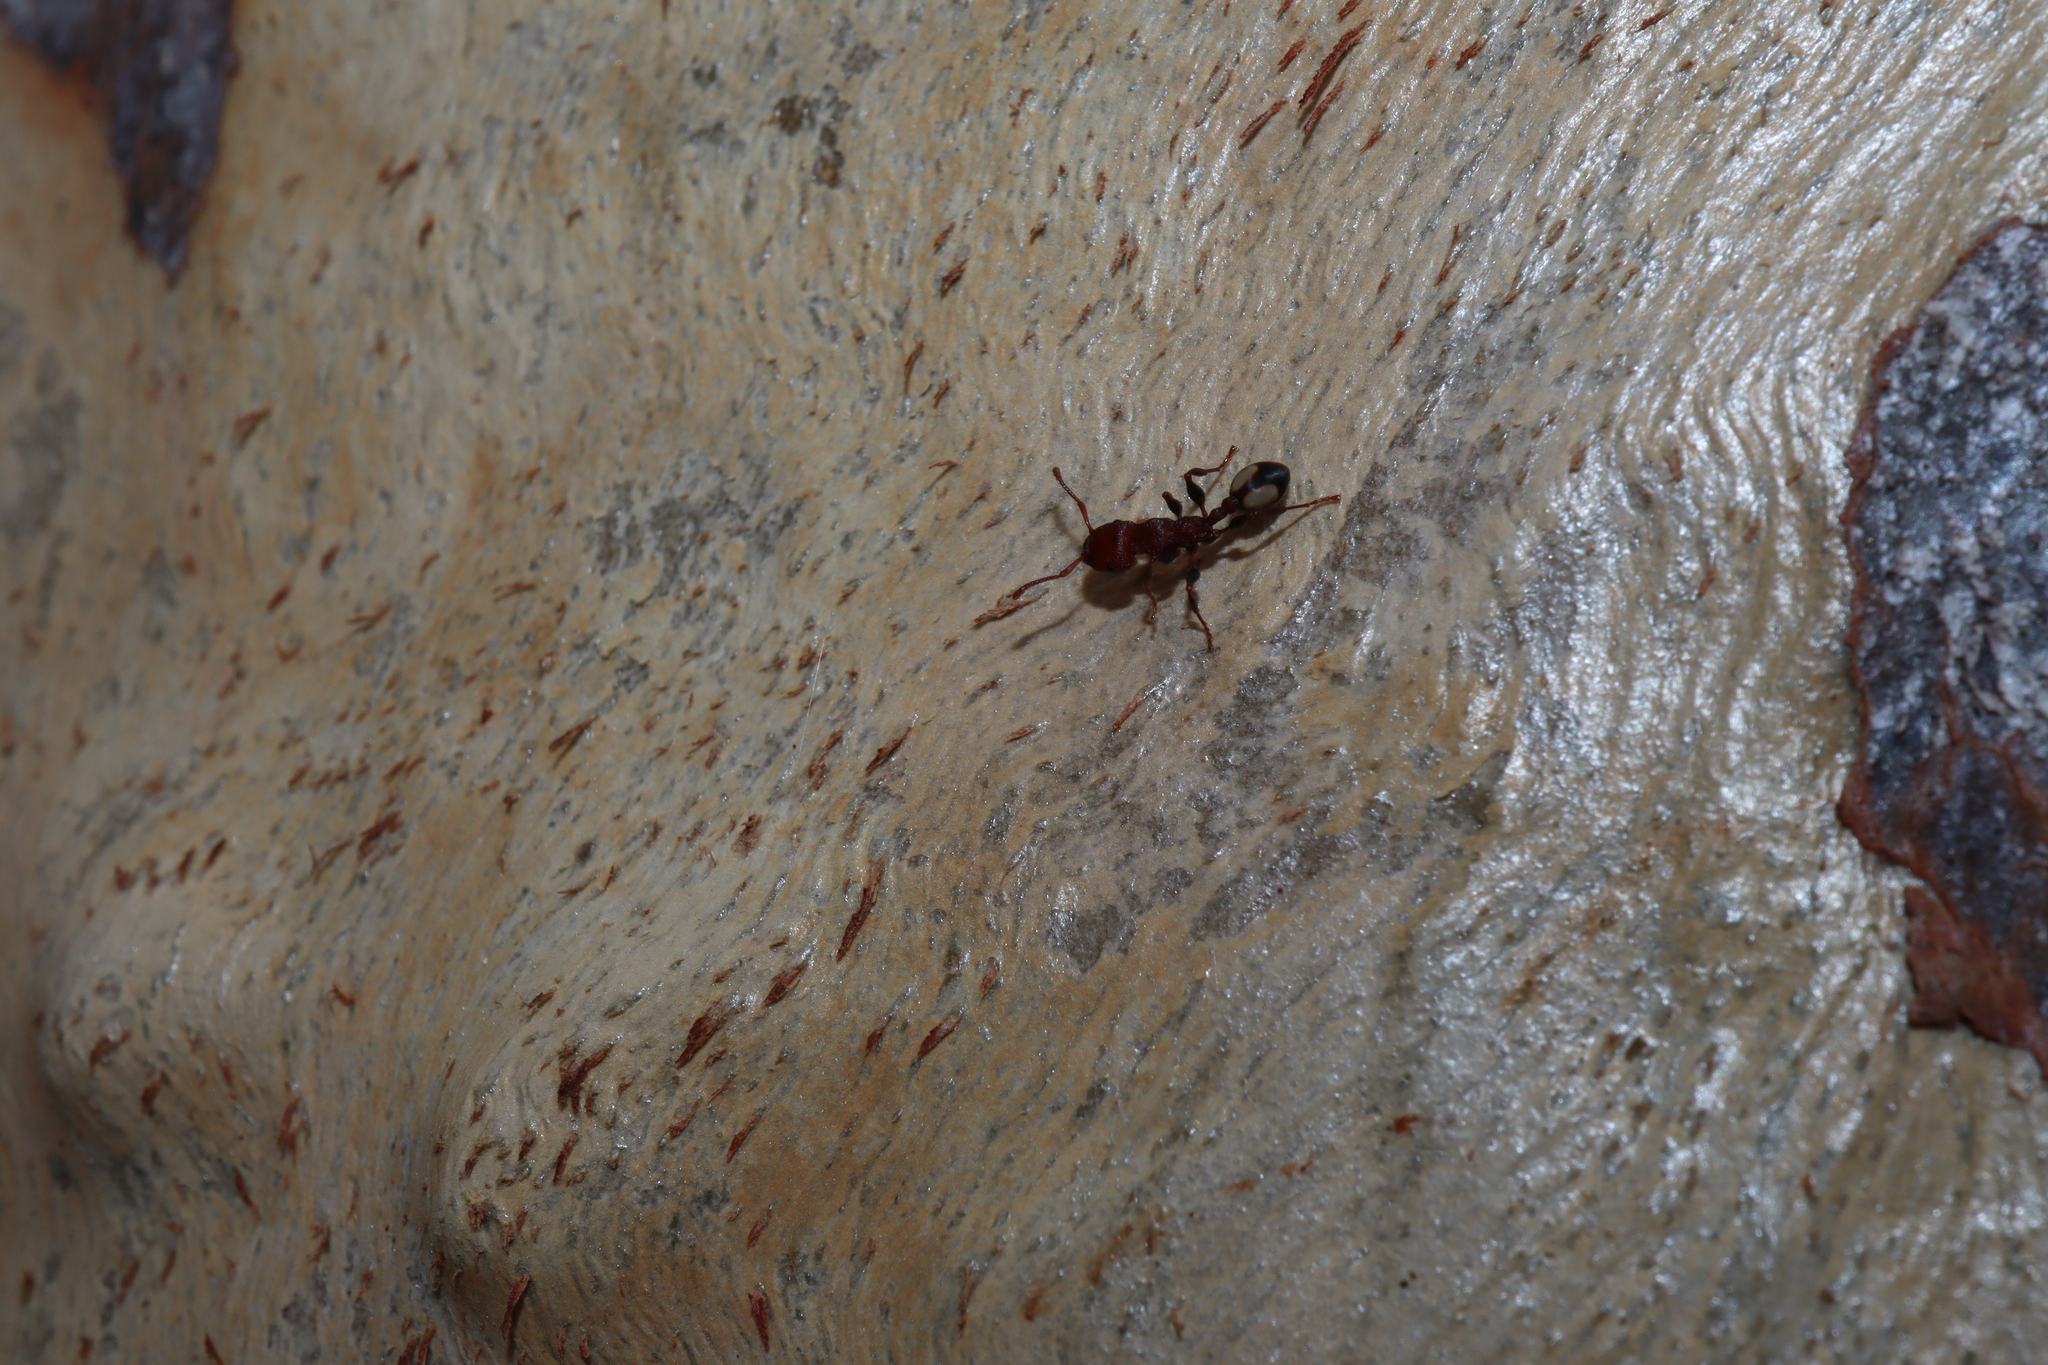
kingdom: Animalia
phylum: Arthropoda
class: Insecta
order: Hymenoptera
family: Formicidae
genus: Podomyrma
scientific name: Podomyrma adelaidae
